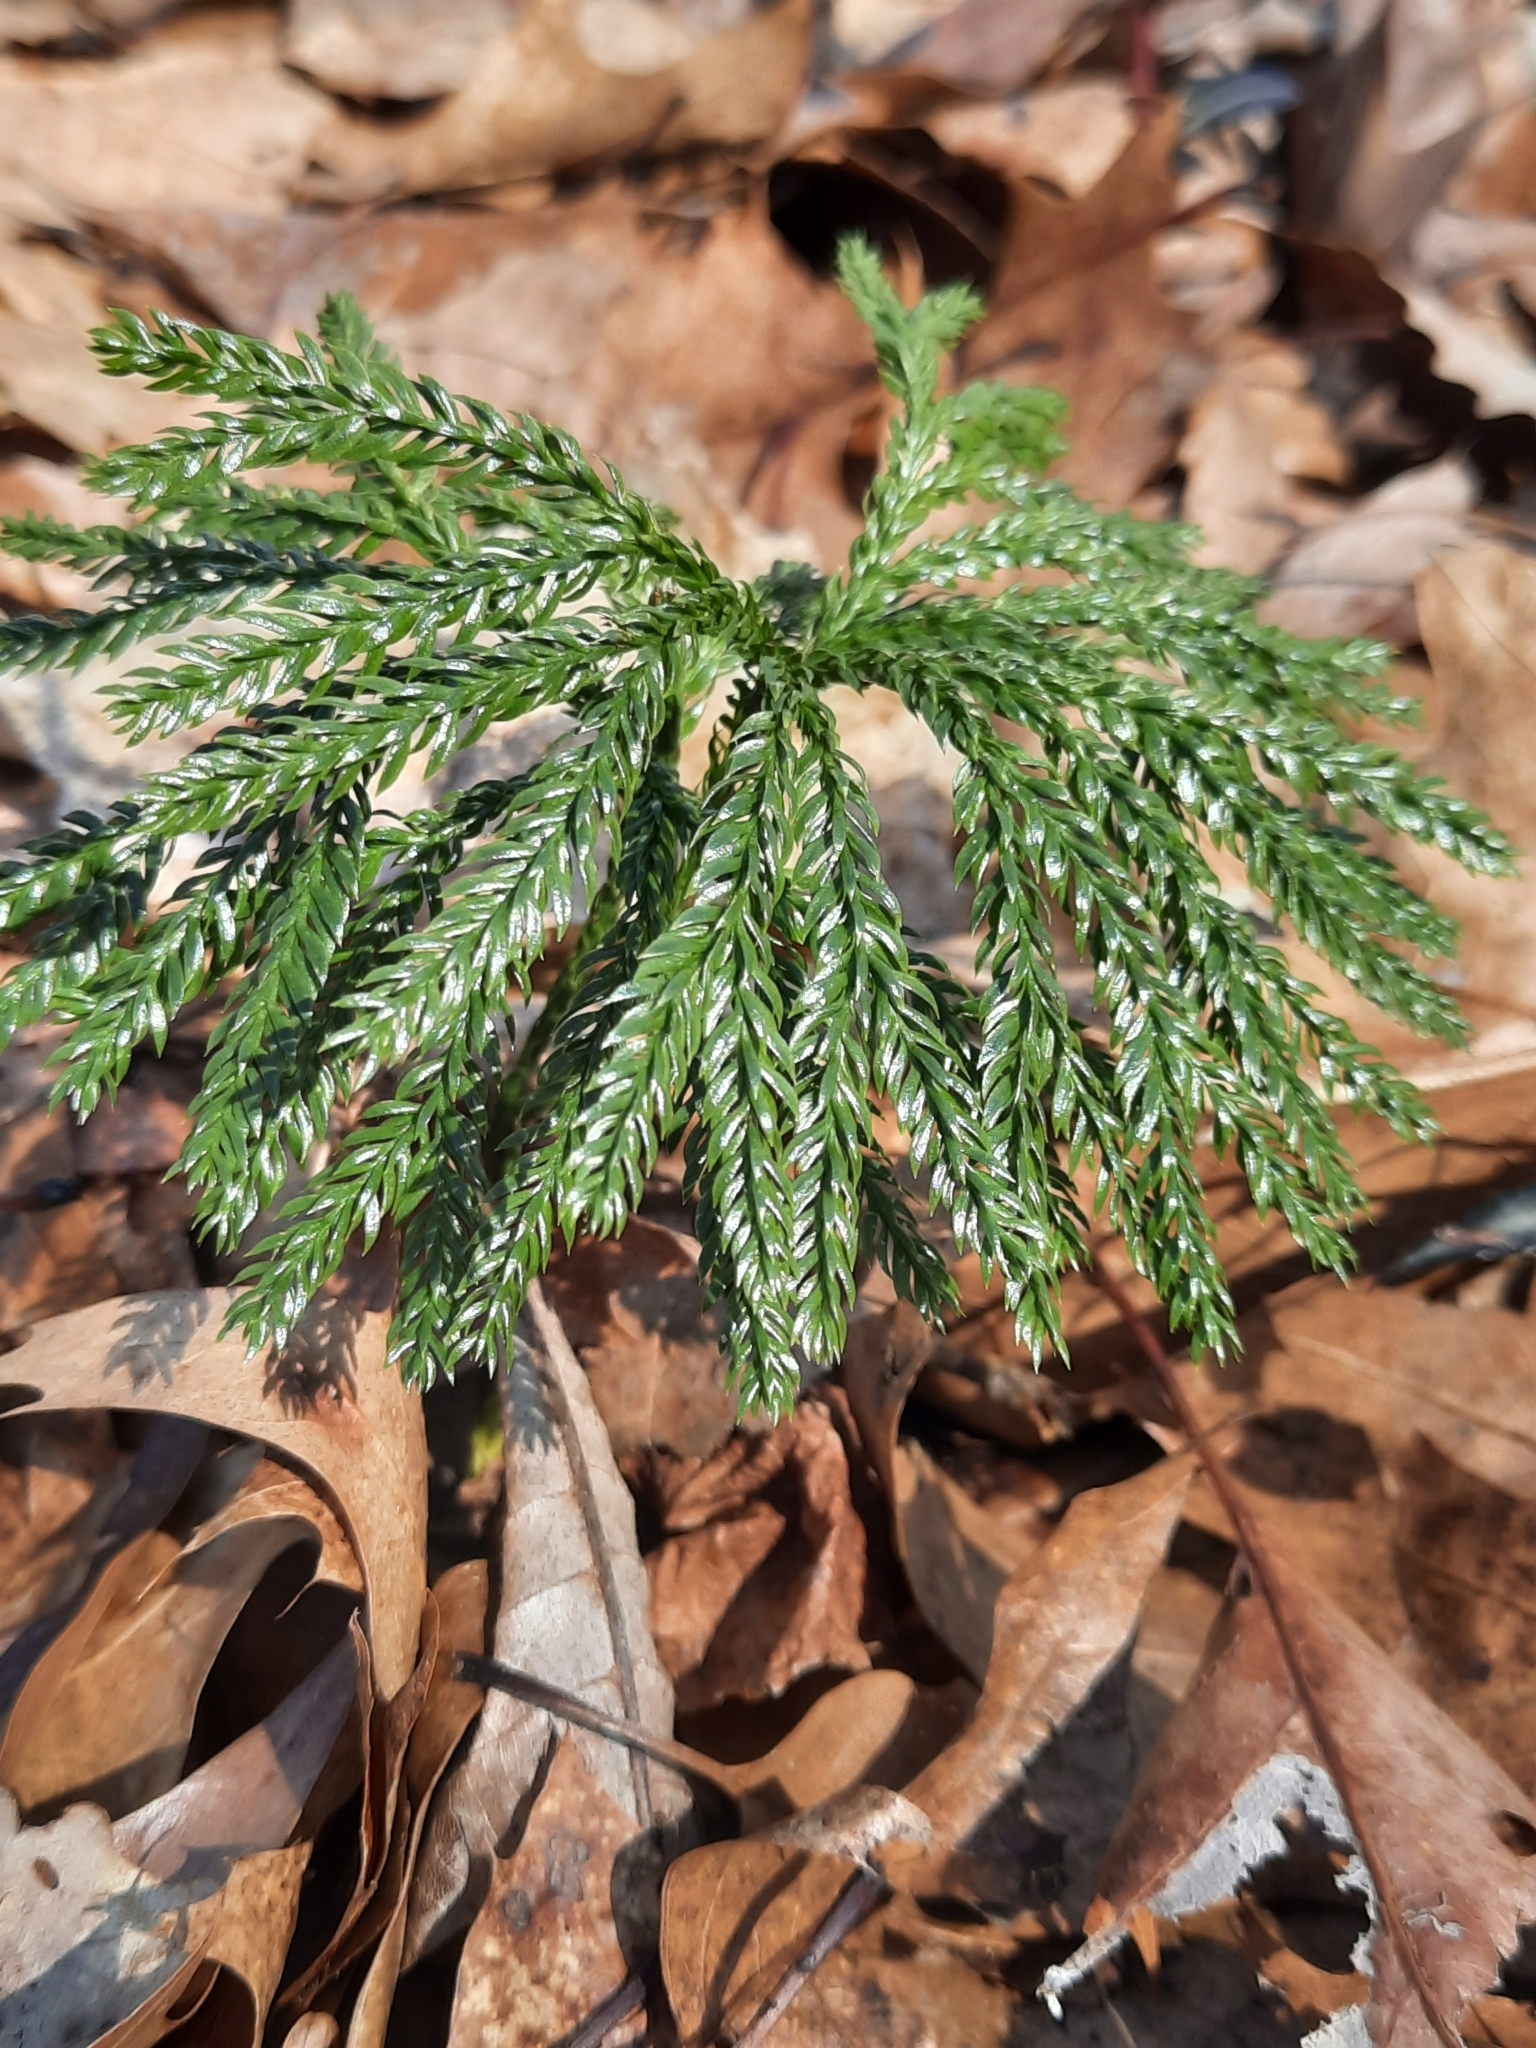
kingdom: Plantae
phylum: Tracheophyta
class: Lycopodiopsida
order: Lycopodiales
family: Lycopodiaceae
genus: Dendrolycopodium
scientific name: Dendrolycopodium obscurum
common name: Common ground-pine
